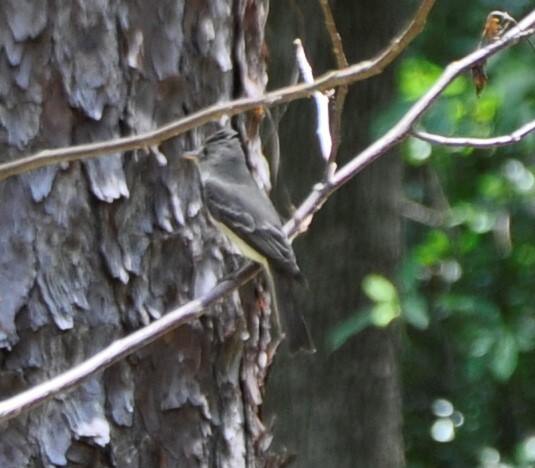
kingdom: Animalia
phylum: Chordata
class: Aves
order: Passeriformes
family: Tyrannidae
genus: Contopus
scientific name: Contopus virens
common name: Eastern wood-pewee
